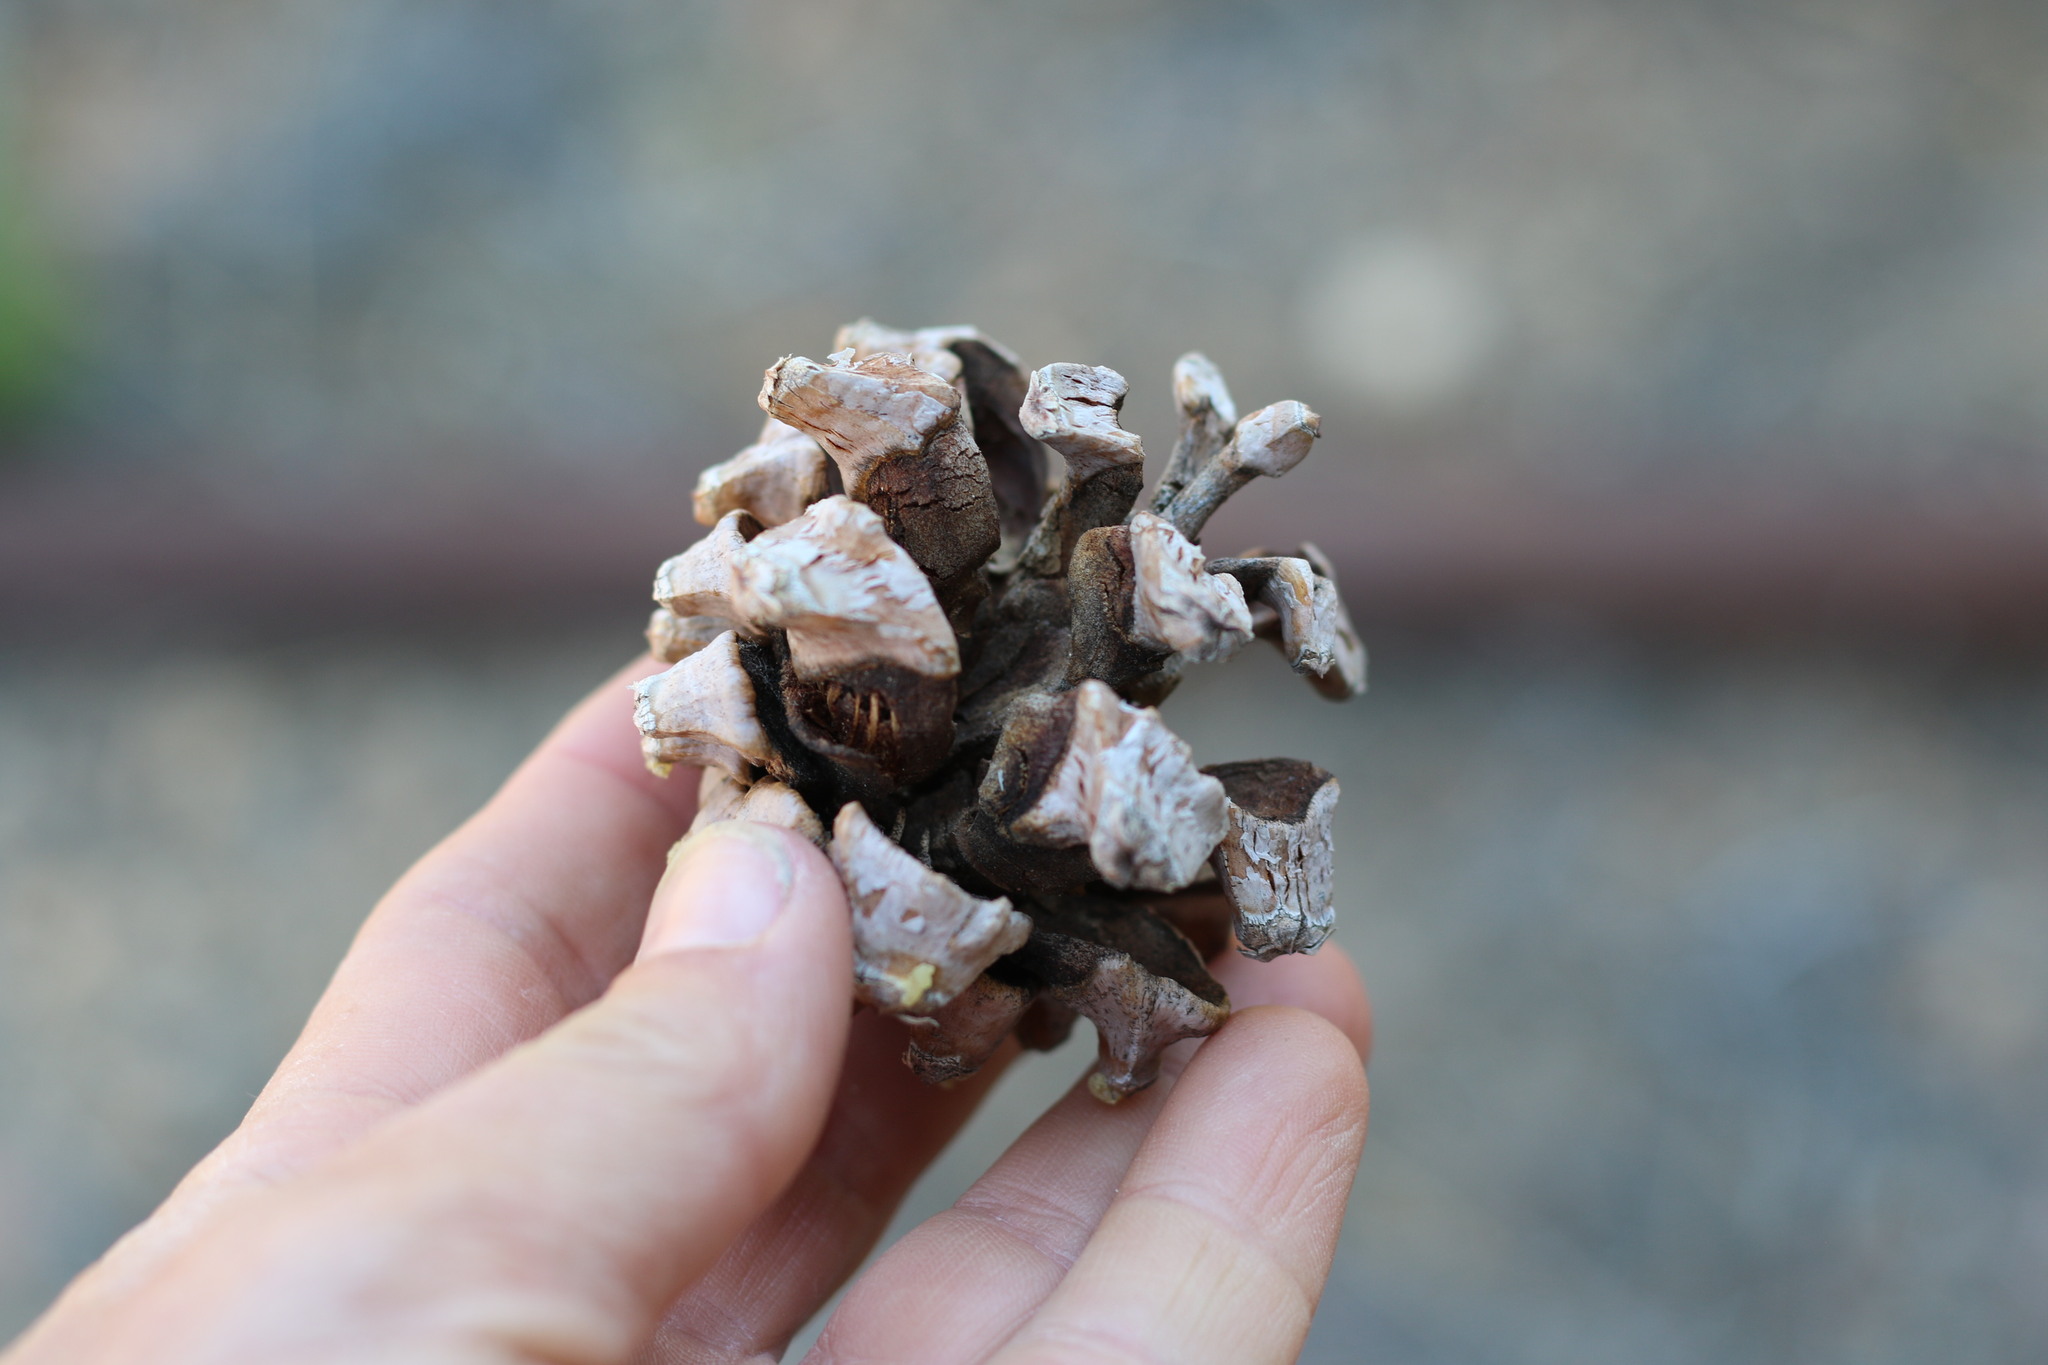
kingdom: Plantae
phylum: Tracheophyta
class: Pinopsida
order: Pinales
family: Pinaceae
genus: Pinus
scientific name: Pinus monophylla
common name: One-leaved nut pine
